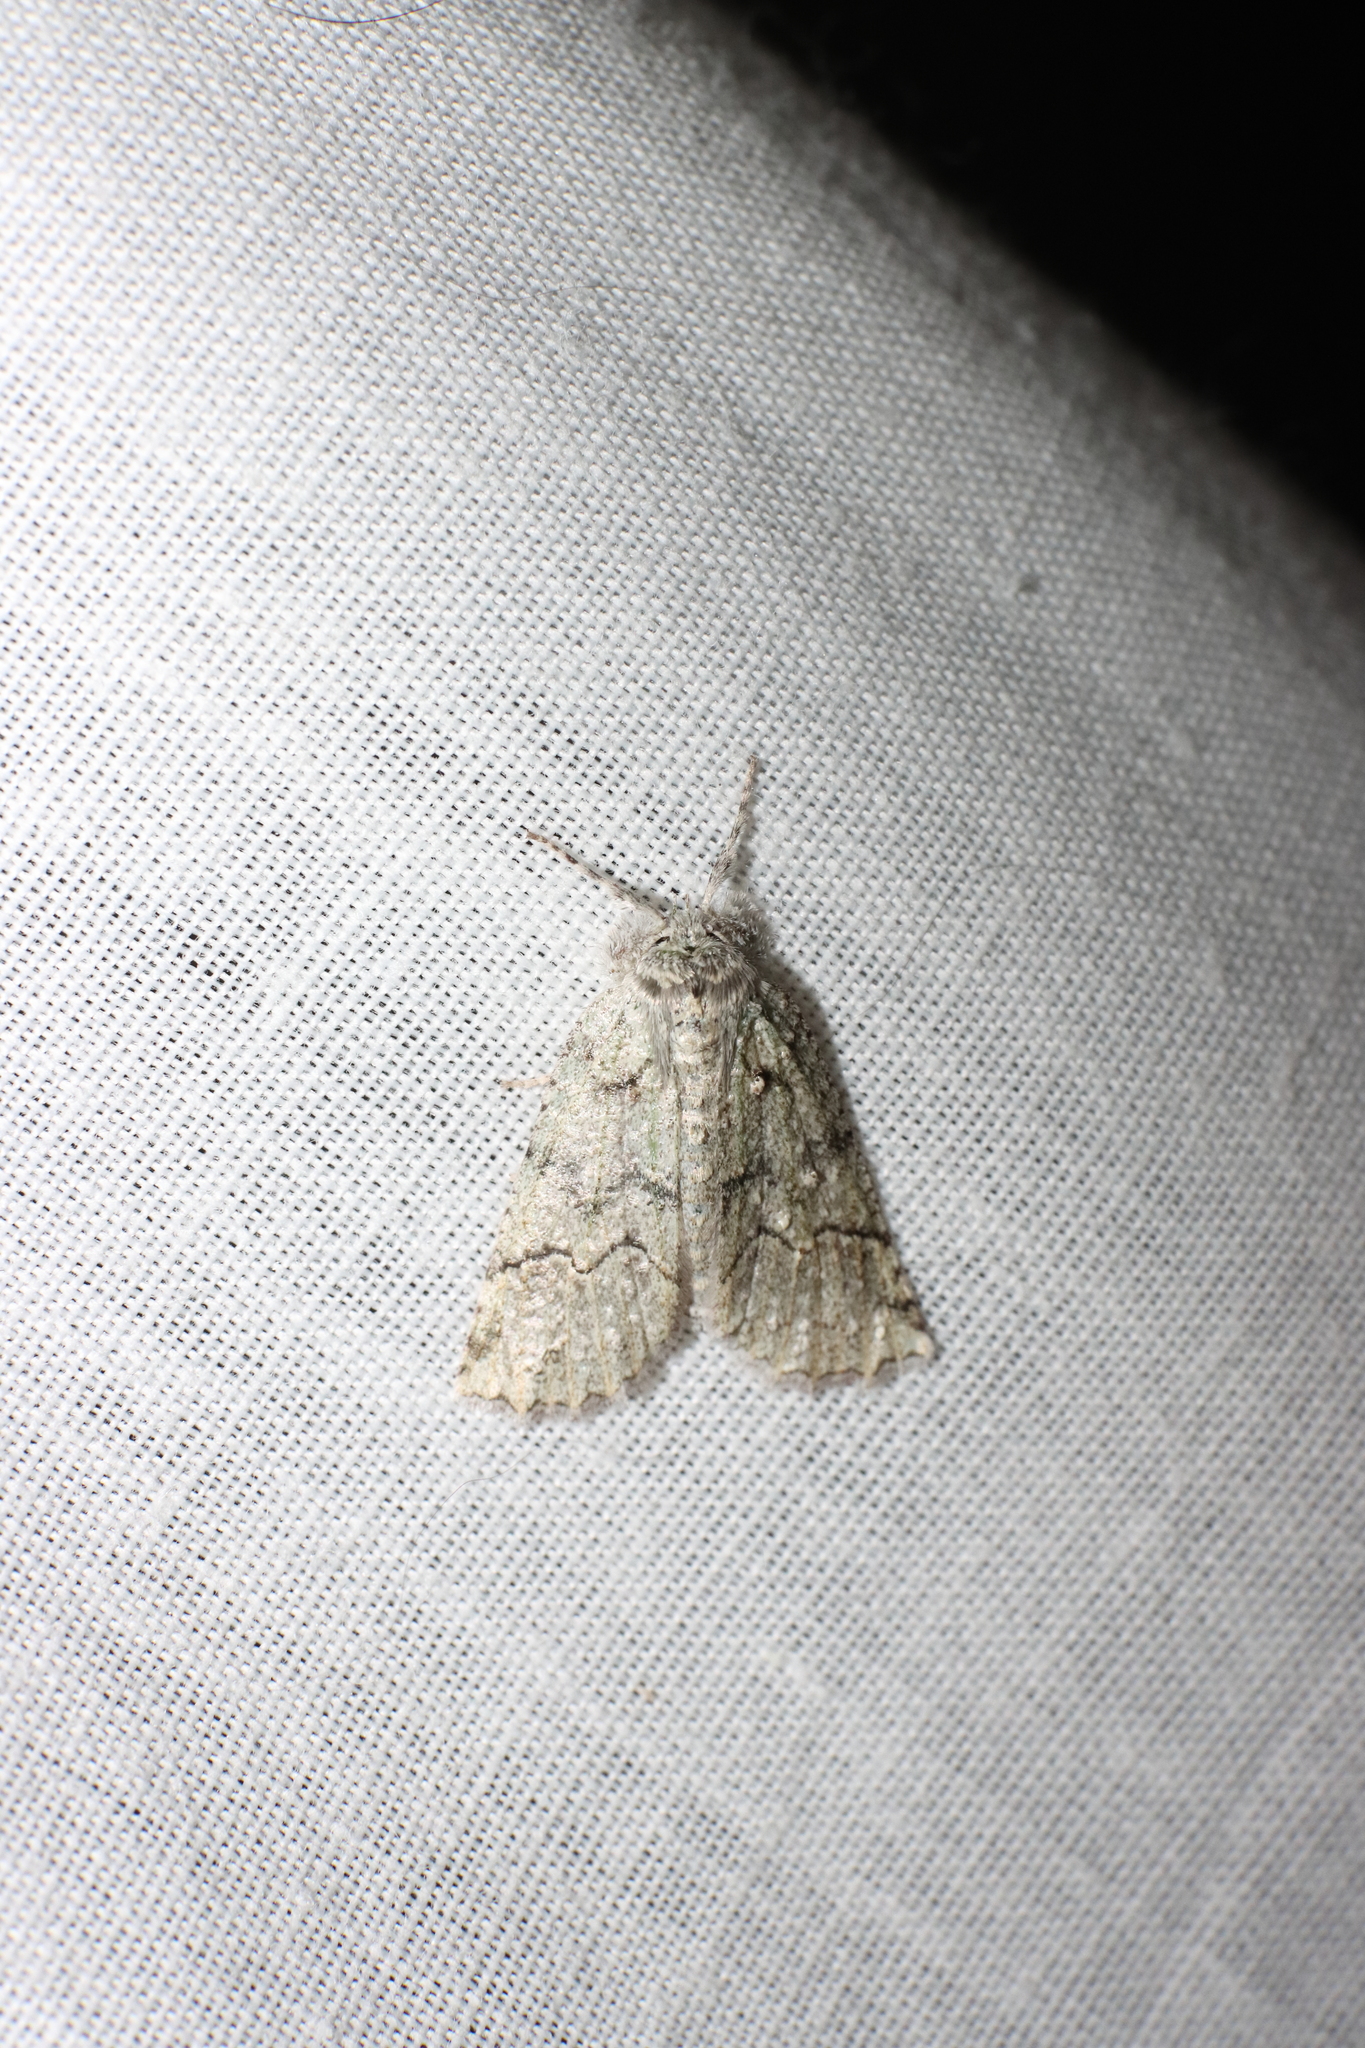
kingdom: Animalia
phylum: Arthropoda
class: Insecta
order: Lepidoptera
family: Geometridae
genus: Declana
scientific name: Declana floccosa
